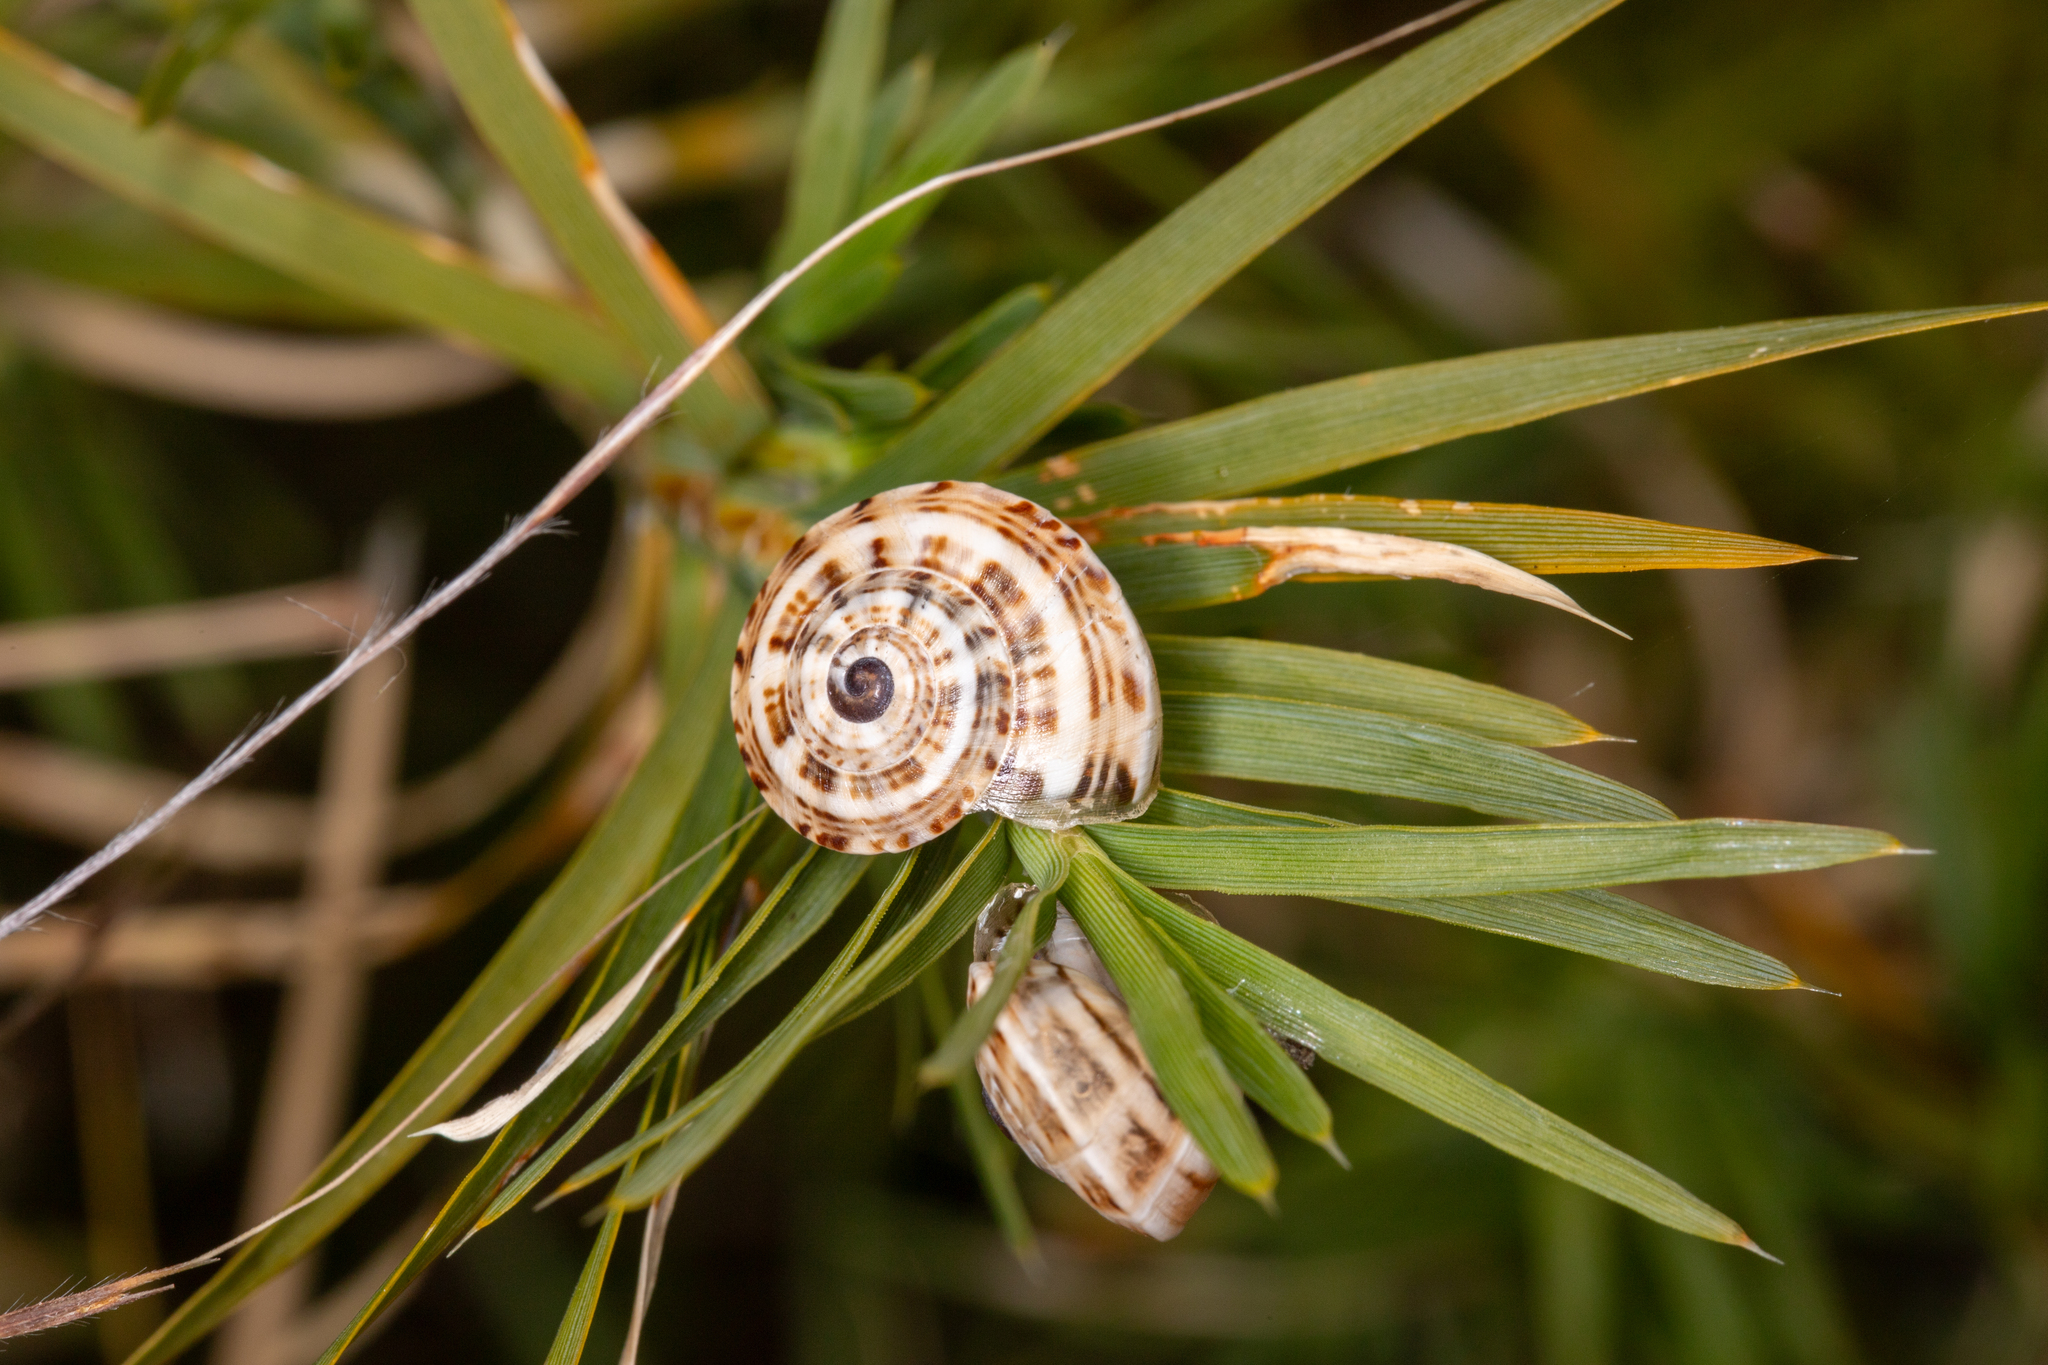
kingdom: Animalia
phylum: Mollusca
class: Gastropoda
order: Stylommatophora
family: Helicidae
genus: Theba
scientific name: Theba pisana
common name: White snail
